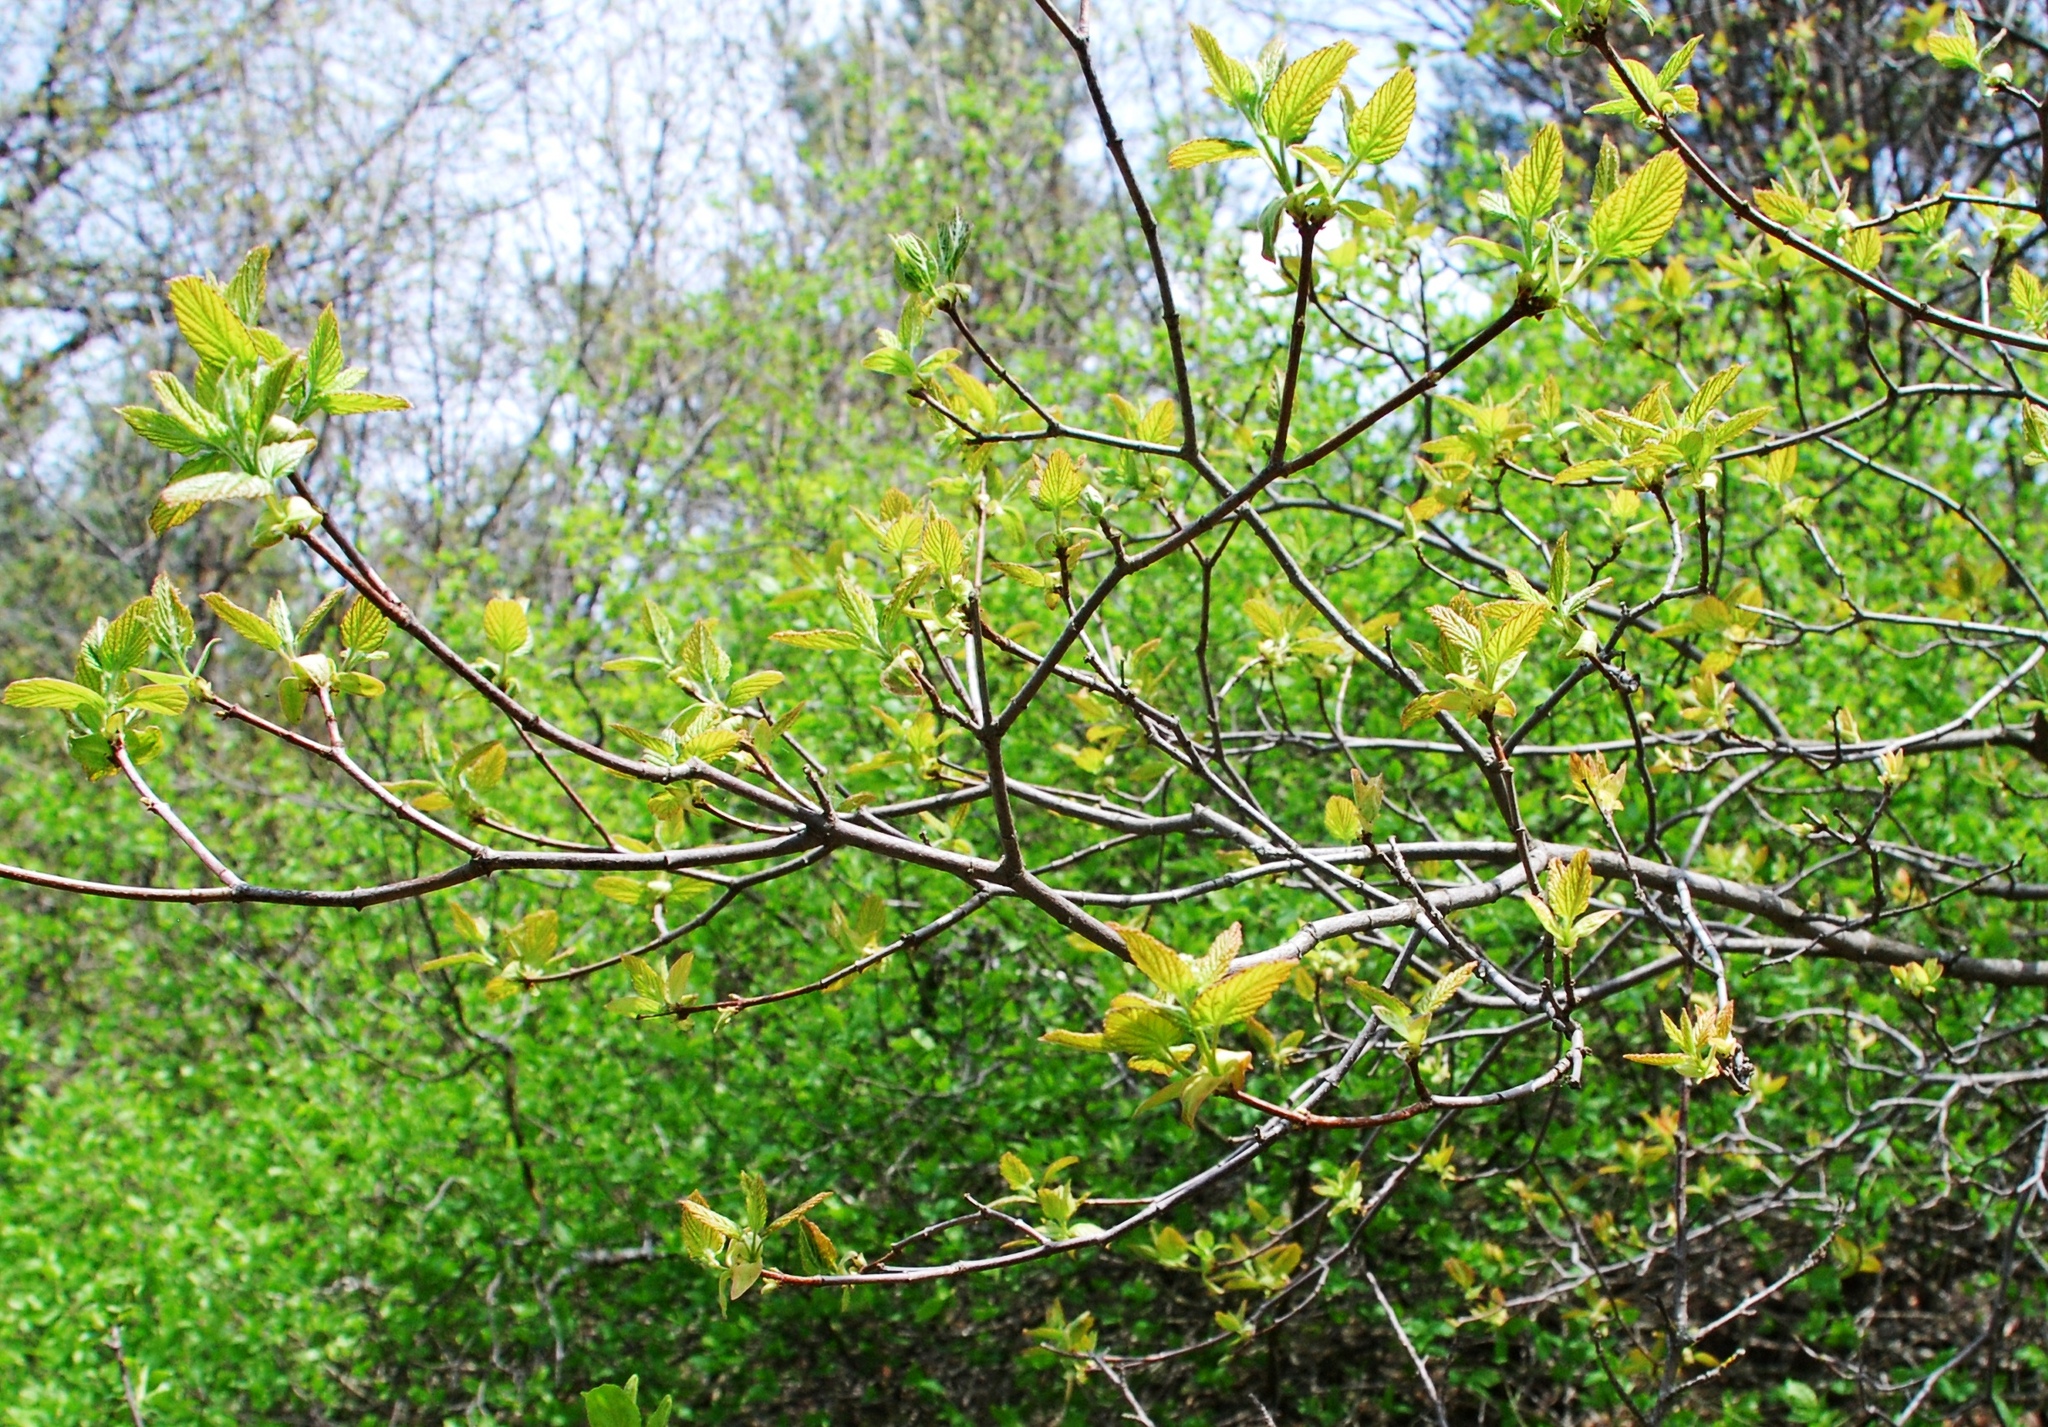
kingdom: Plantae
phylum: Tracheophyta
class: Magnoliopsida
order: Sapindales
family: Sapindaceae
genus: Acer
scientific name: Acer tataricum
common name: Tartar maple
